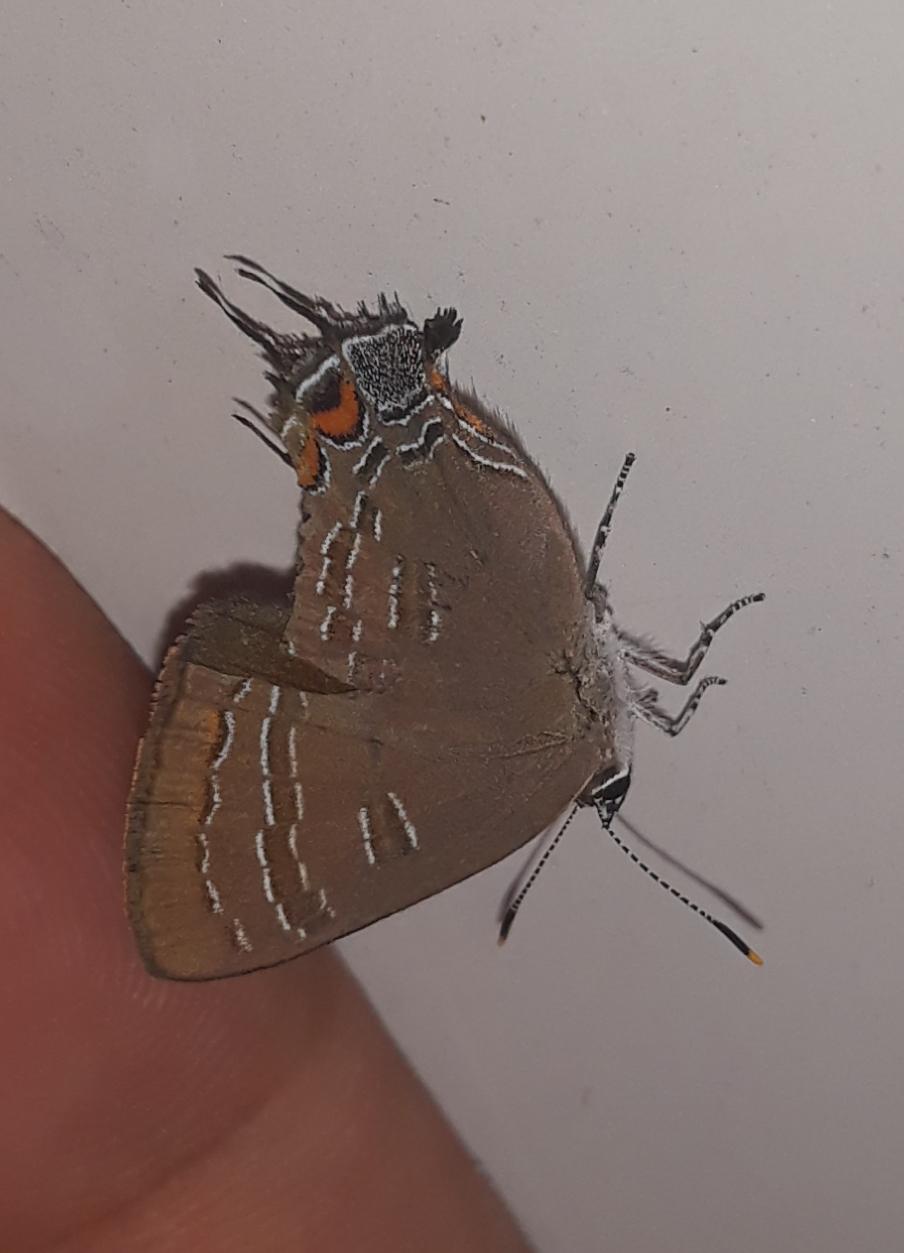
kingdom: Animalia
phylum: Arthropoda
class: Insecta
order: Lepidoptera
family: Lycaenidae
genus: Satyrium
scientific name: Satyrium calanus
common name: Banded hairstreak
